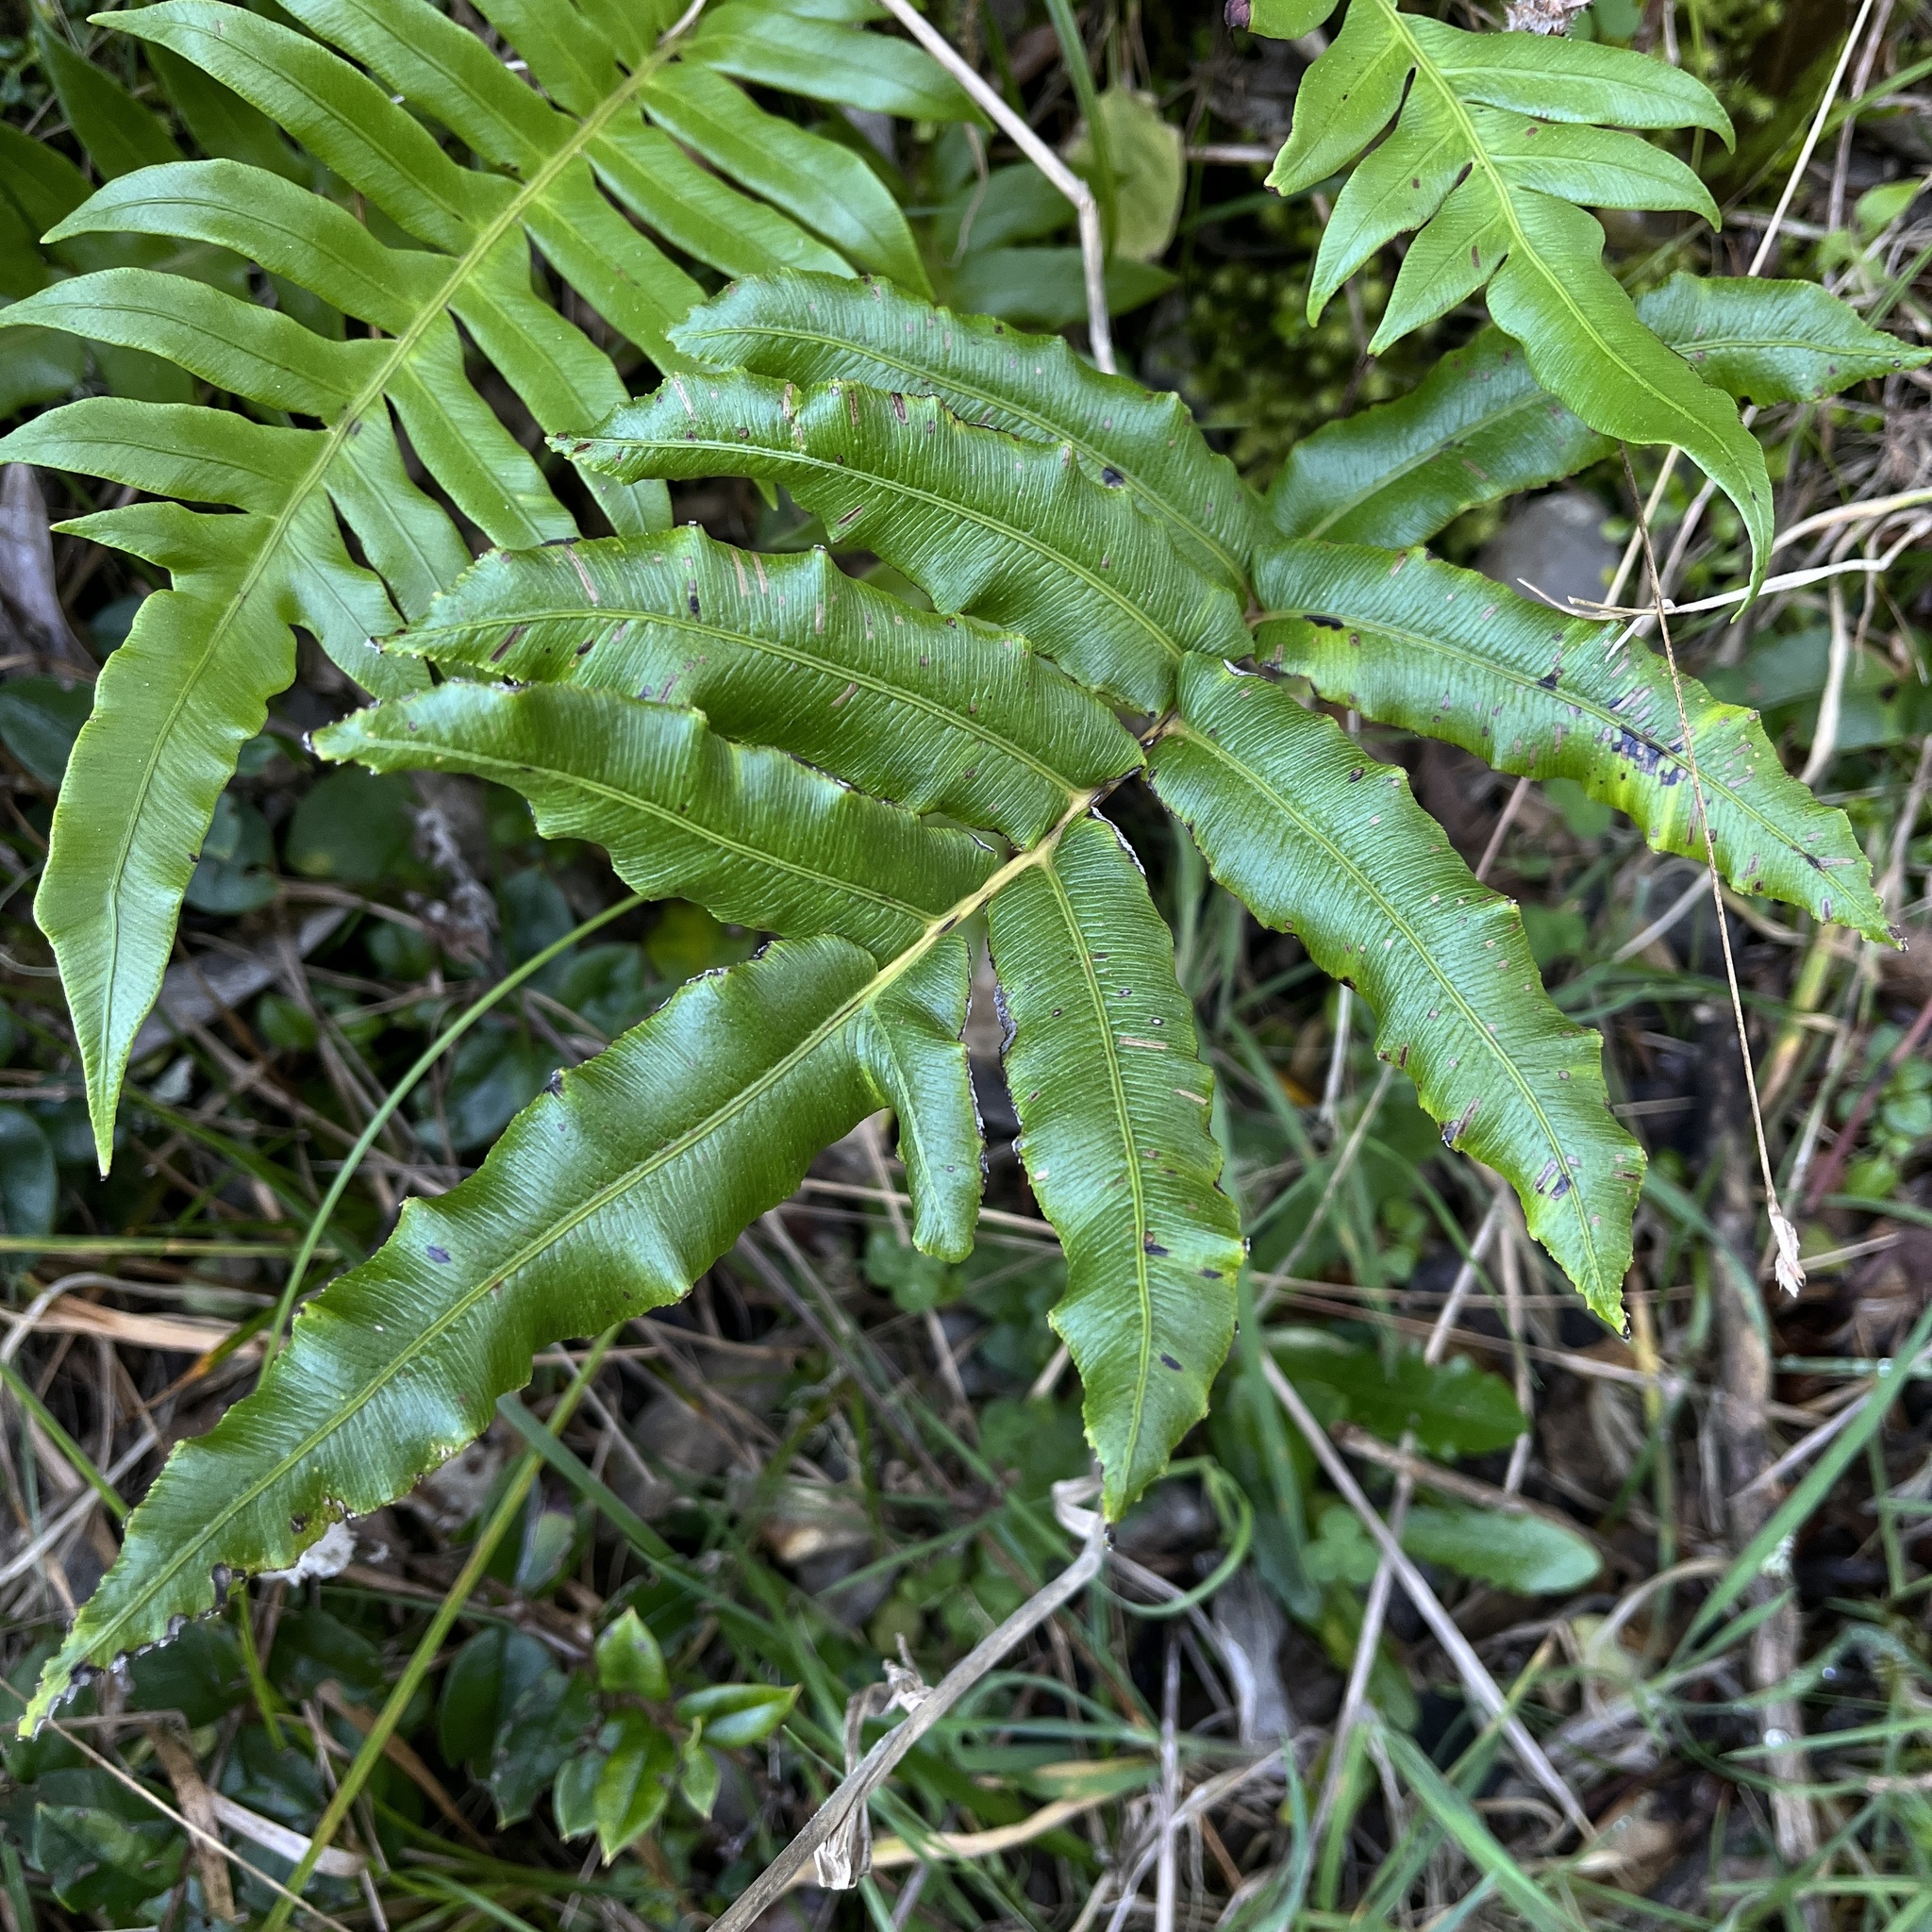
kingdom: Plantae
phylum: Tracheophyta
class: Polypodiopsida
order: Polypodiales
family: Blechnaceae
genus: Parablechnum
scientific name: Parablechnum chilense
